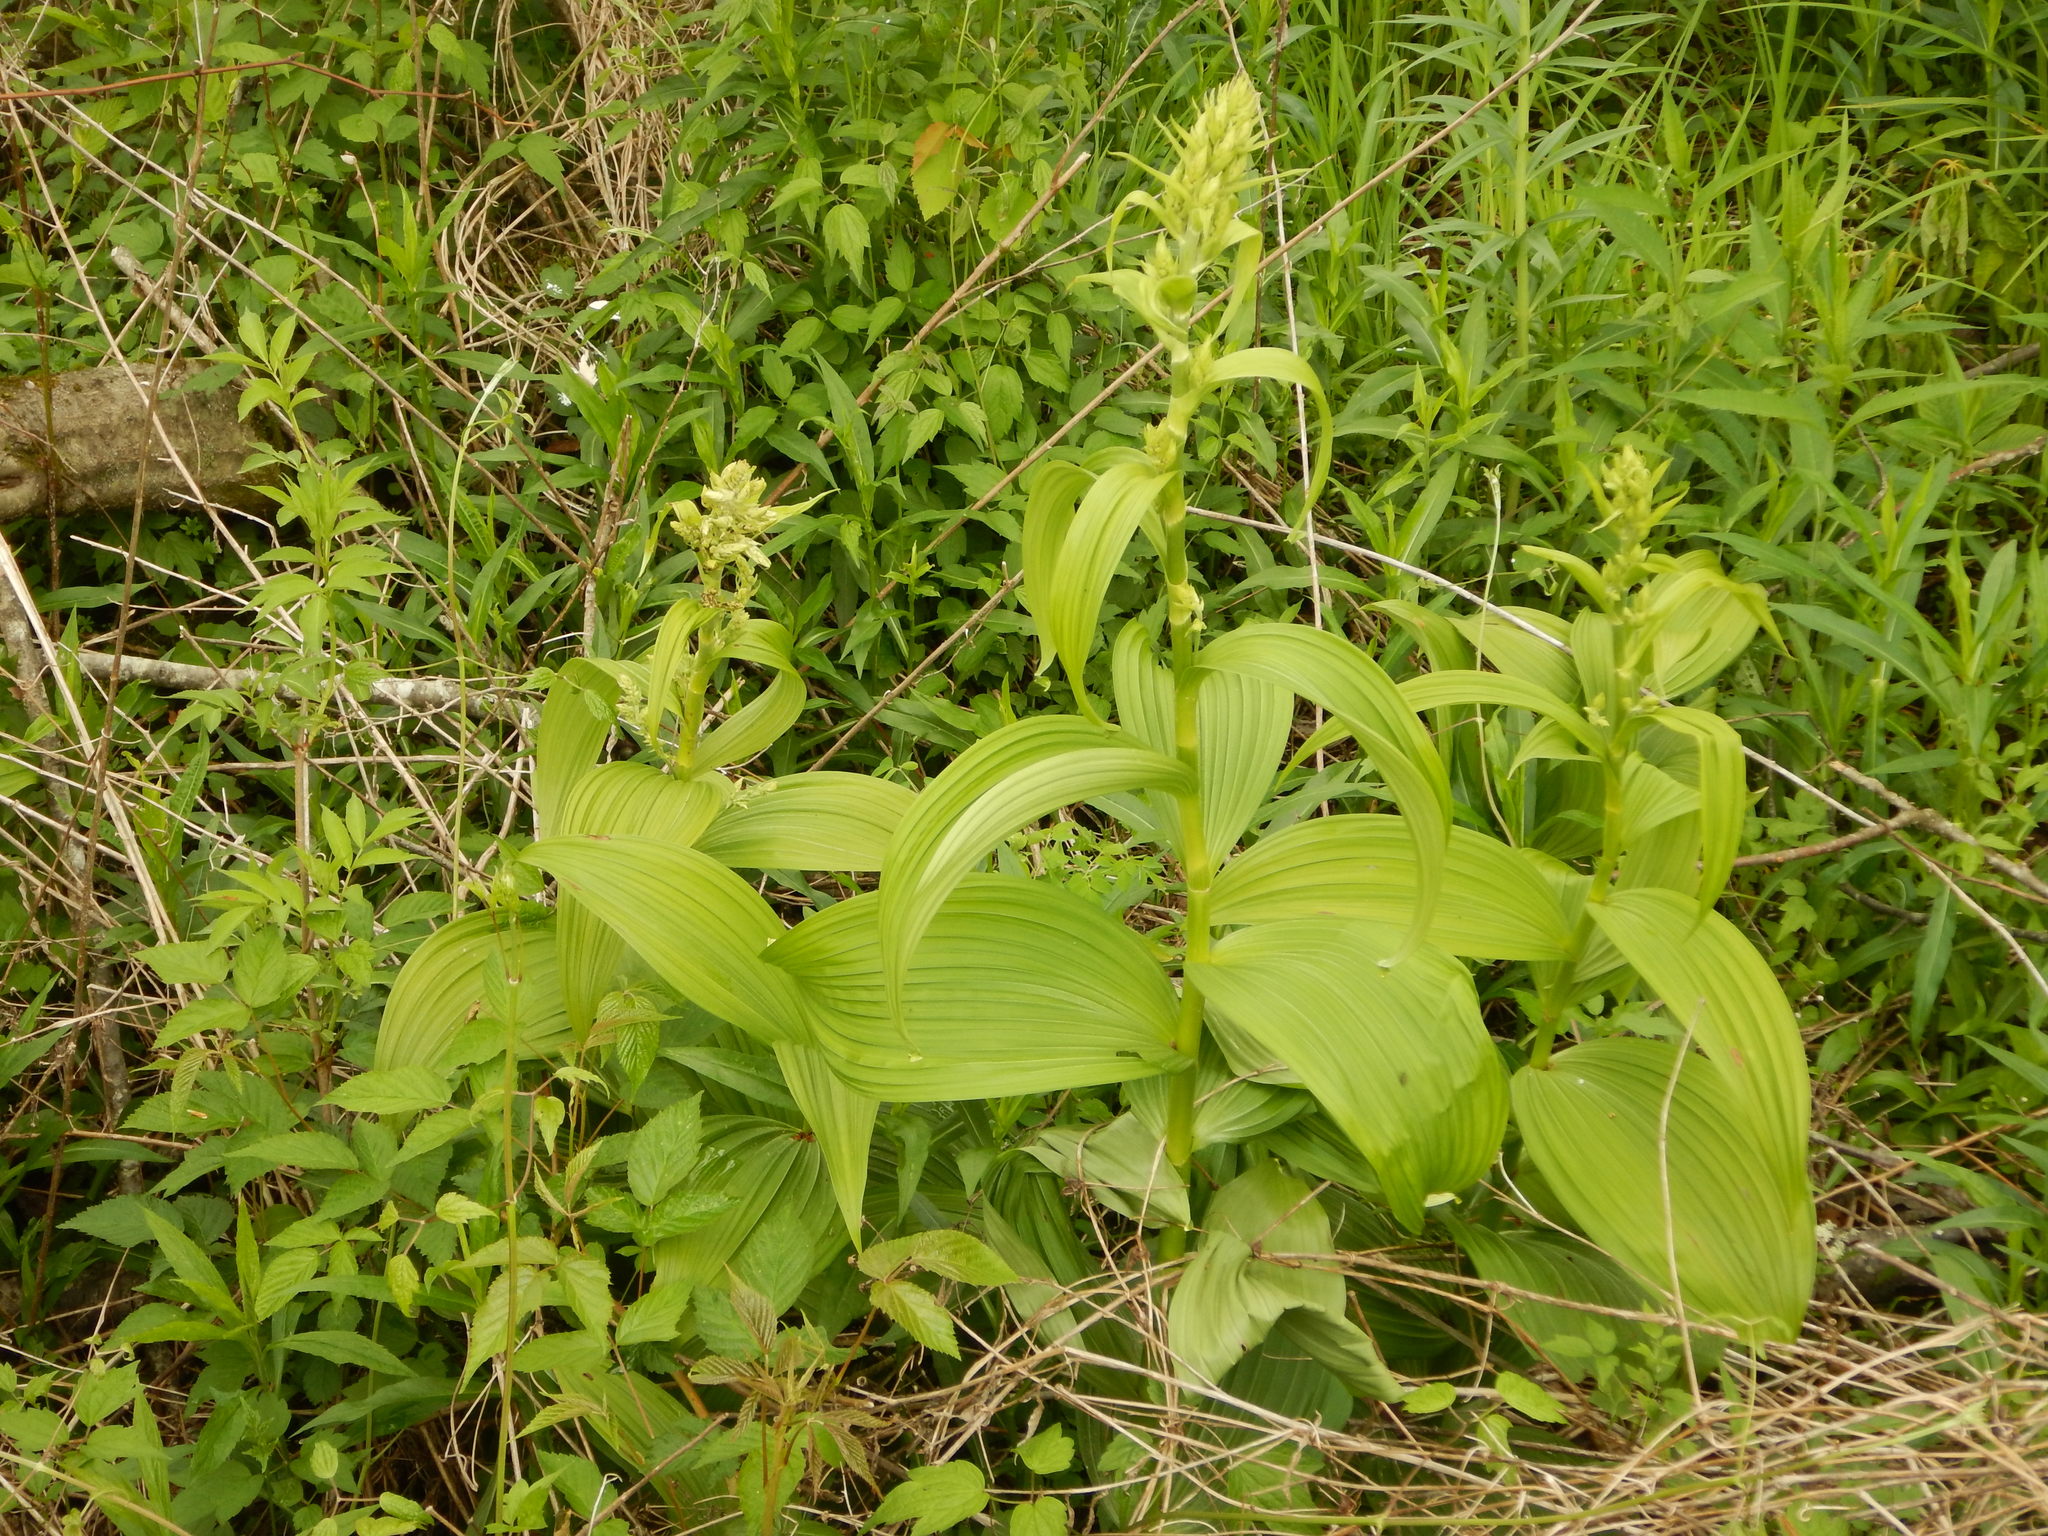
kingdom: Plantae
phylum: Tracheophyta
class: Liliopsida
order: Liliales
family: Melanthiaceae
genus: Veratrum
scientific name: Veratrum viride
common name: American false hellebore
